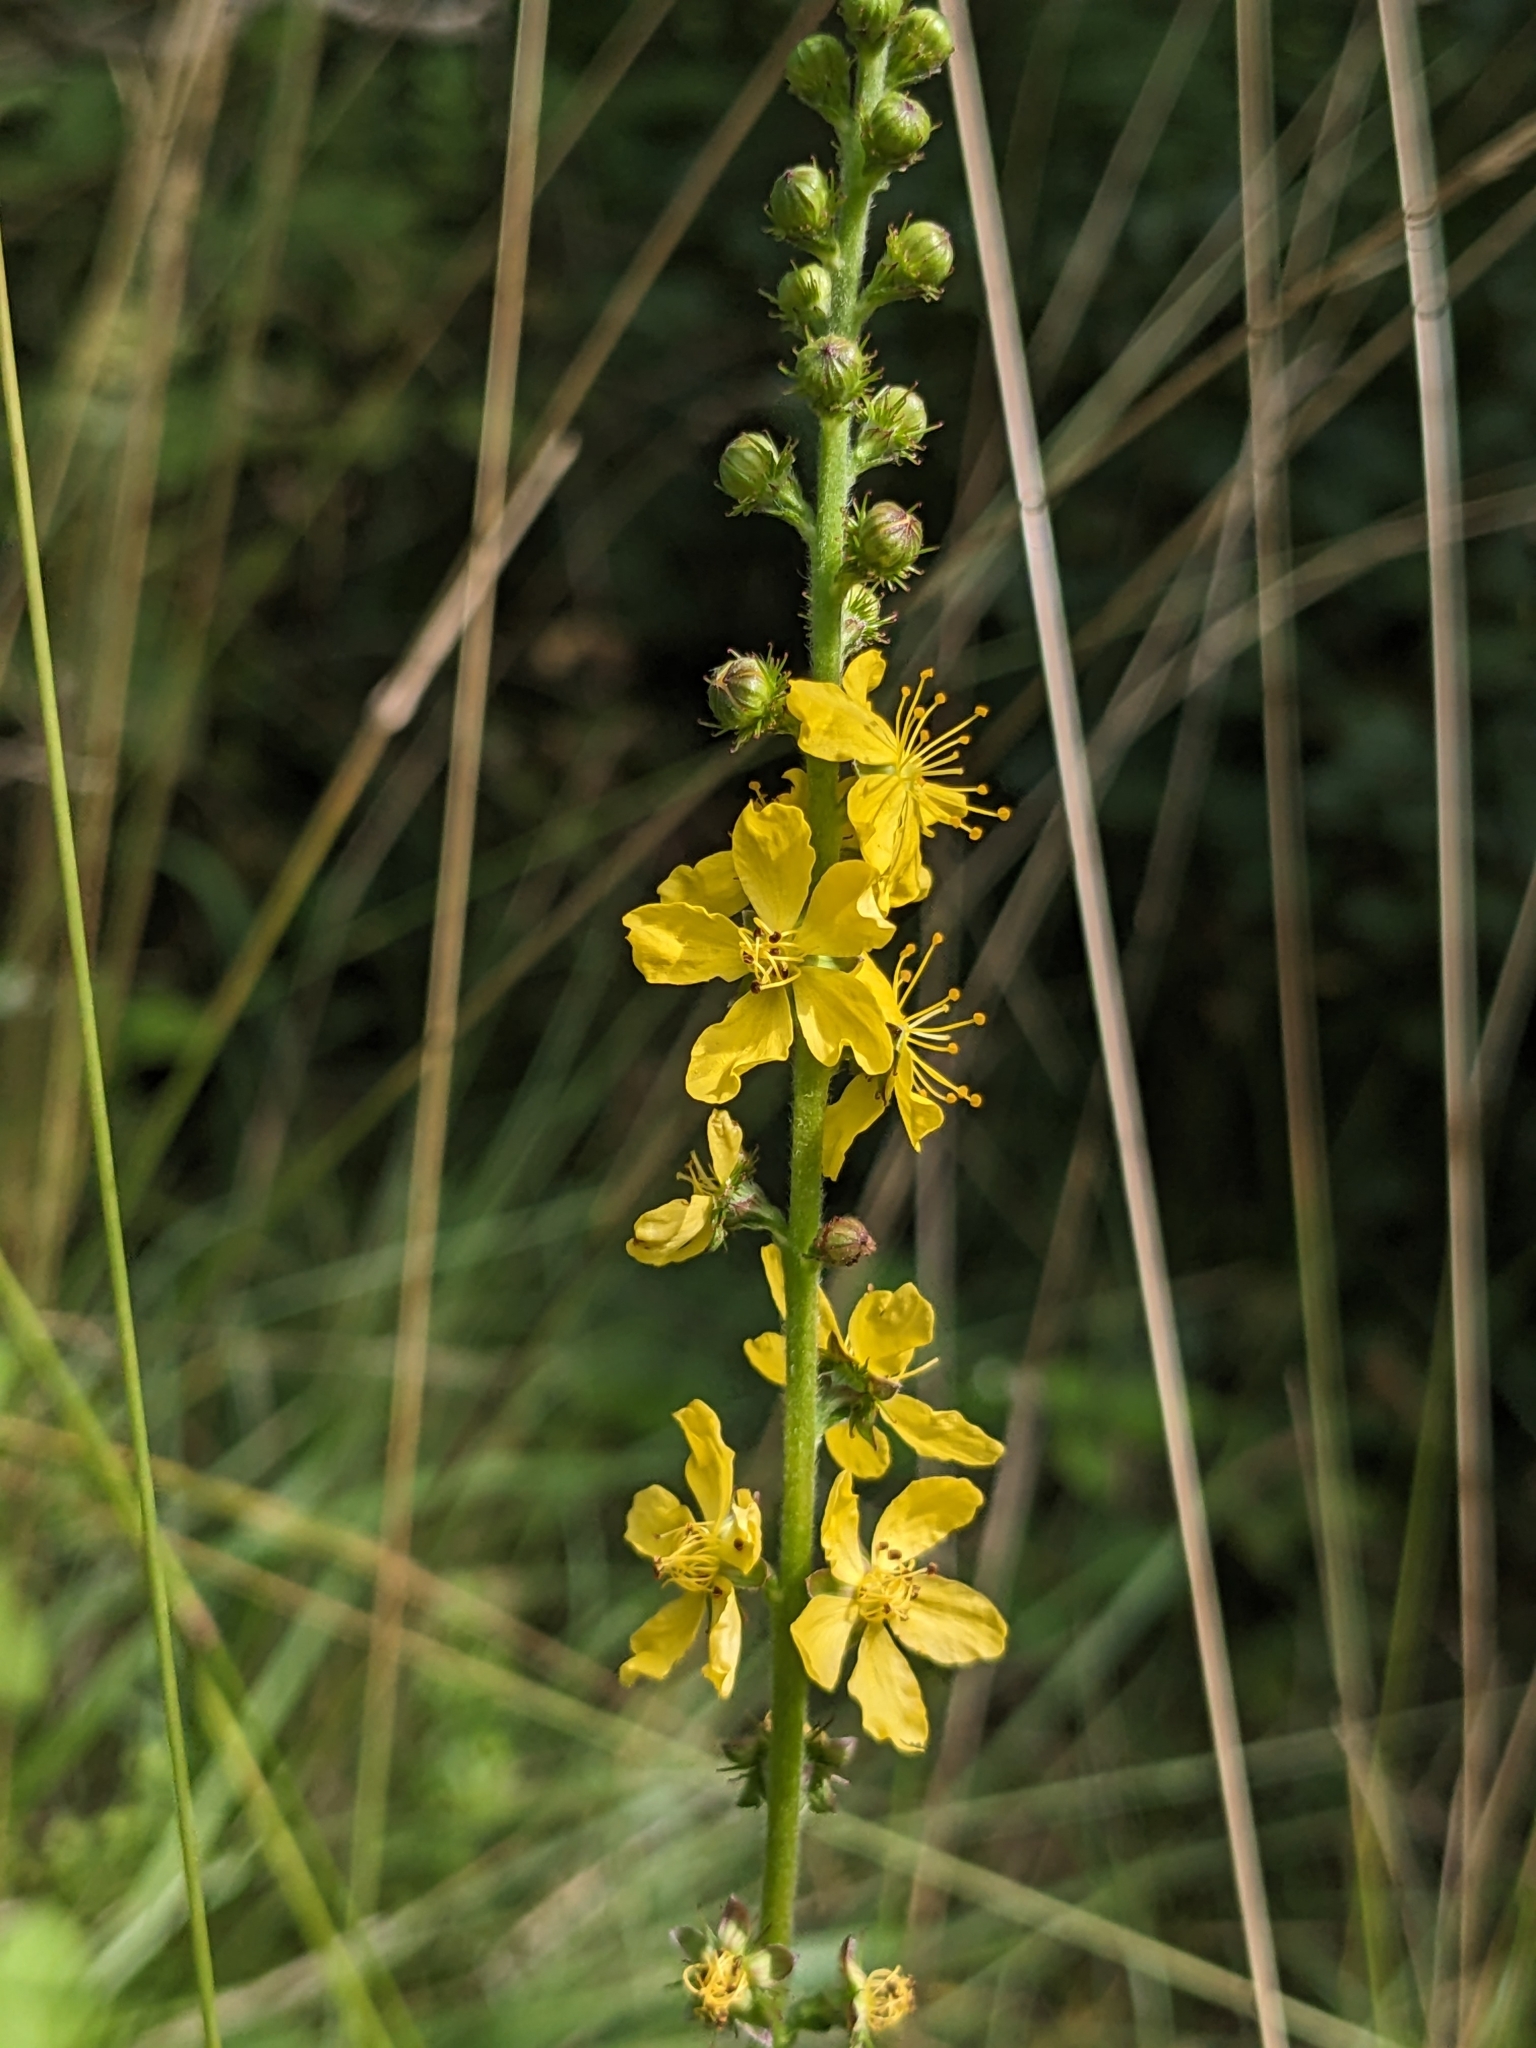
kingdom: Plantae
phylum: Tracheophyta
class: Magnoliopsida
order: Rosales
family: Rosaceae
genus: Agrimonia
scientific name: Agrimonia eupatoria
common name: Agrimony
